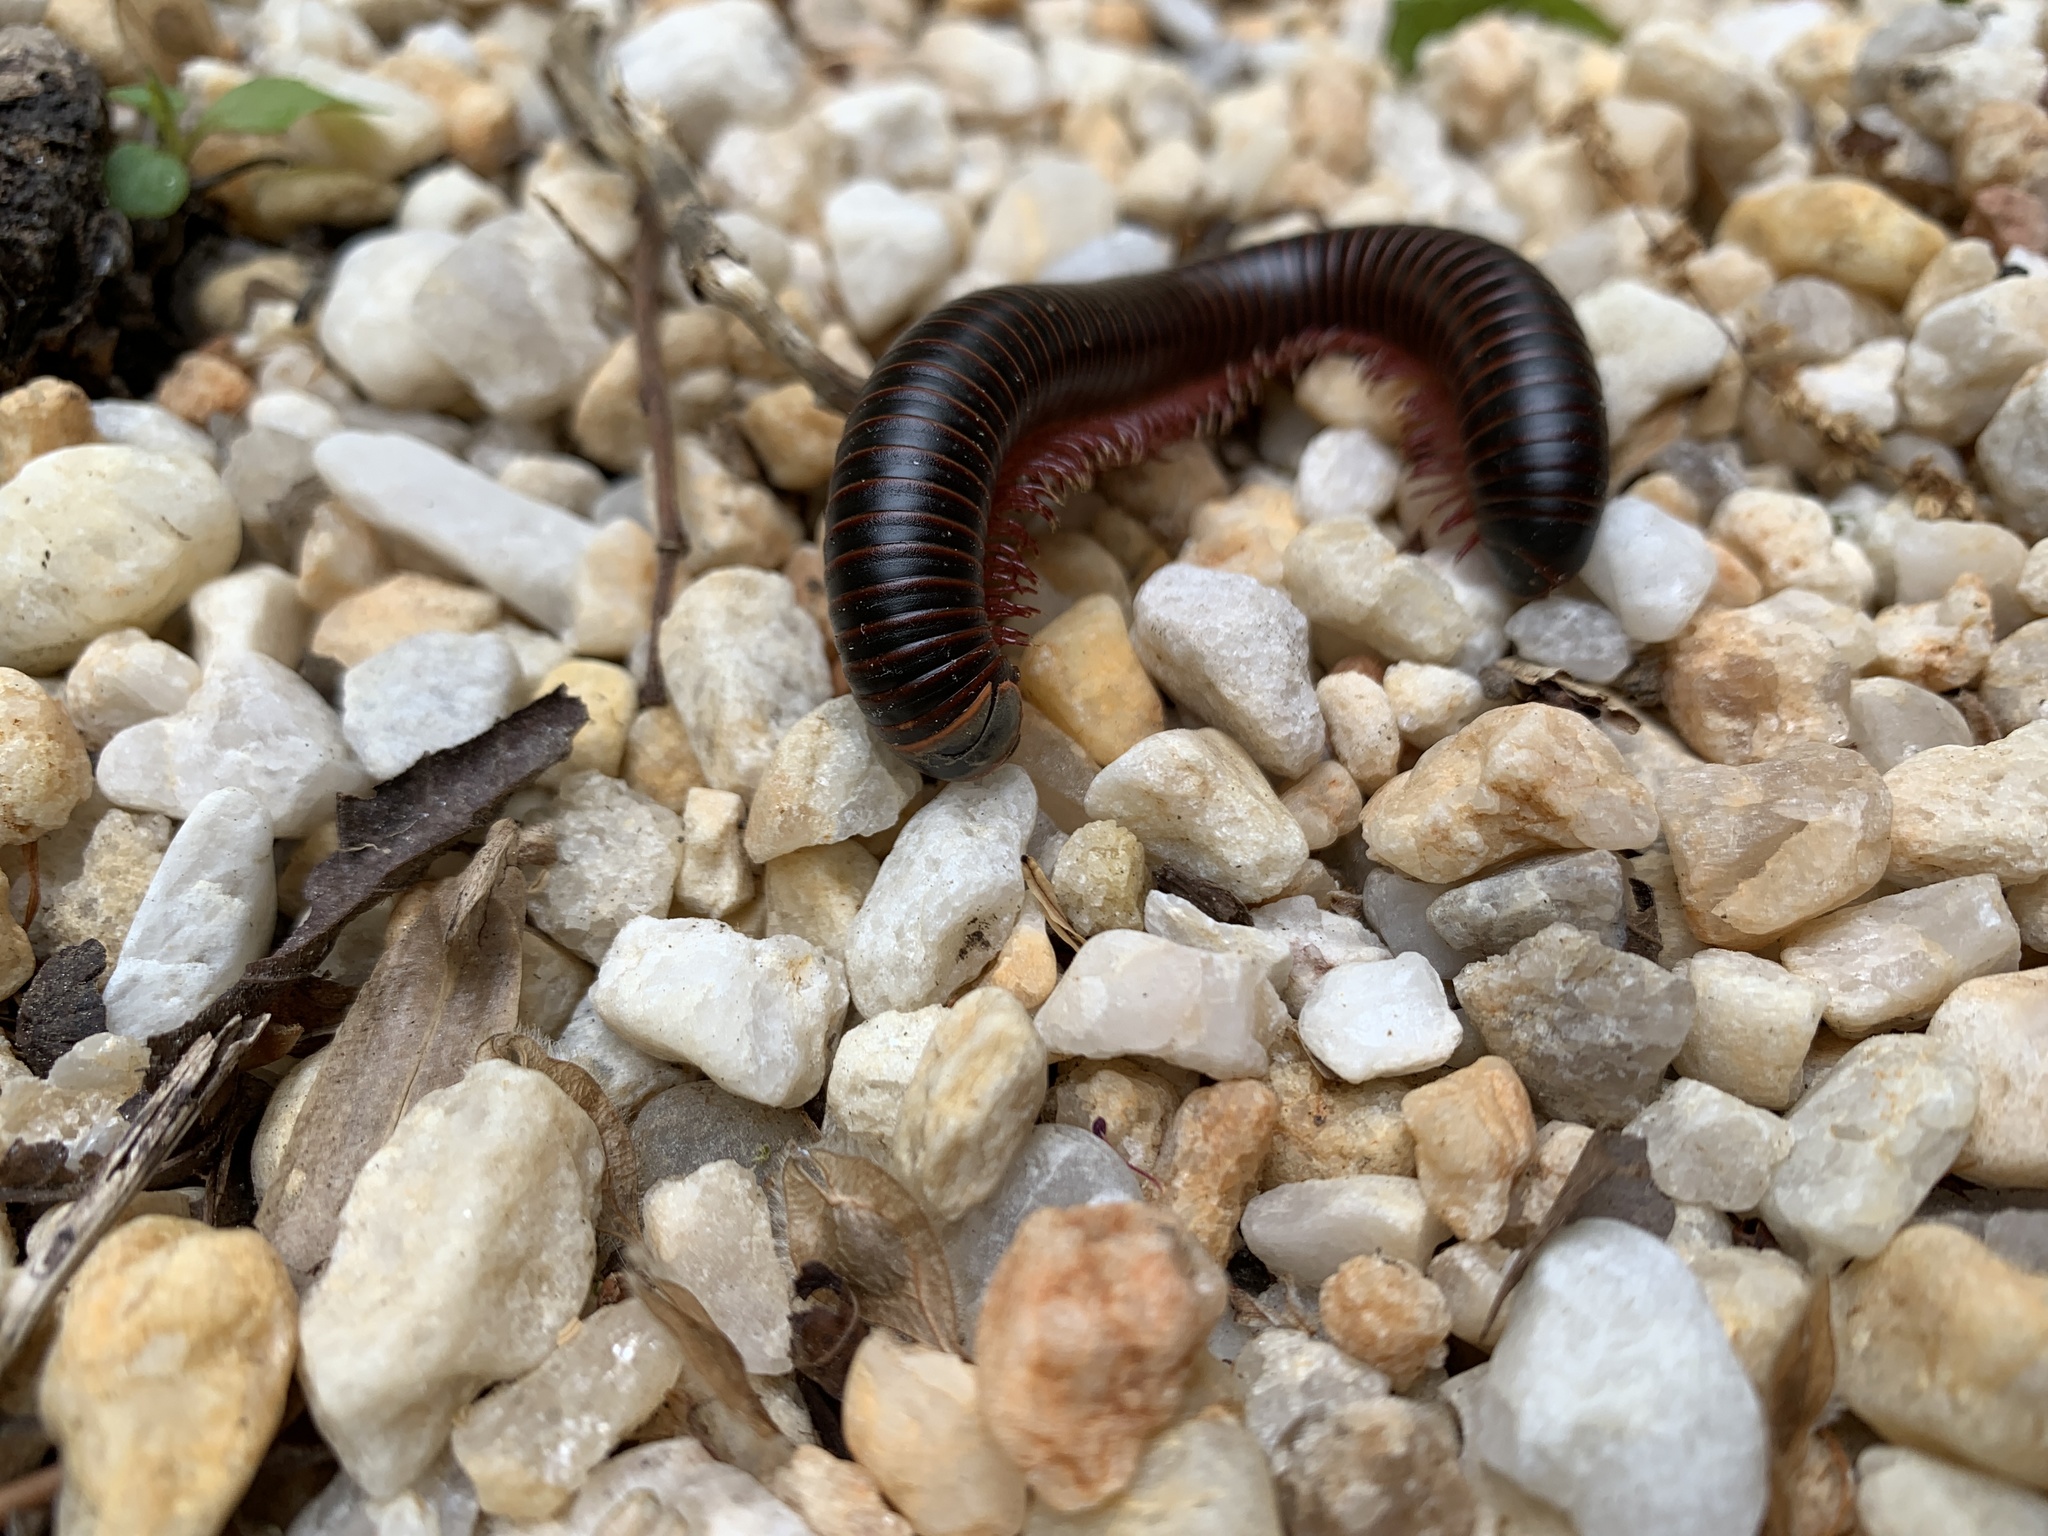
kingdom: Animalia
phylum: Arthropoda
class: Diplopoda
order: Spirobolida
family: Spirobolidae
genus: Narceus
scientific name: Narceus
